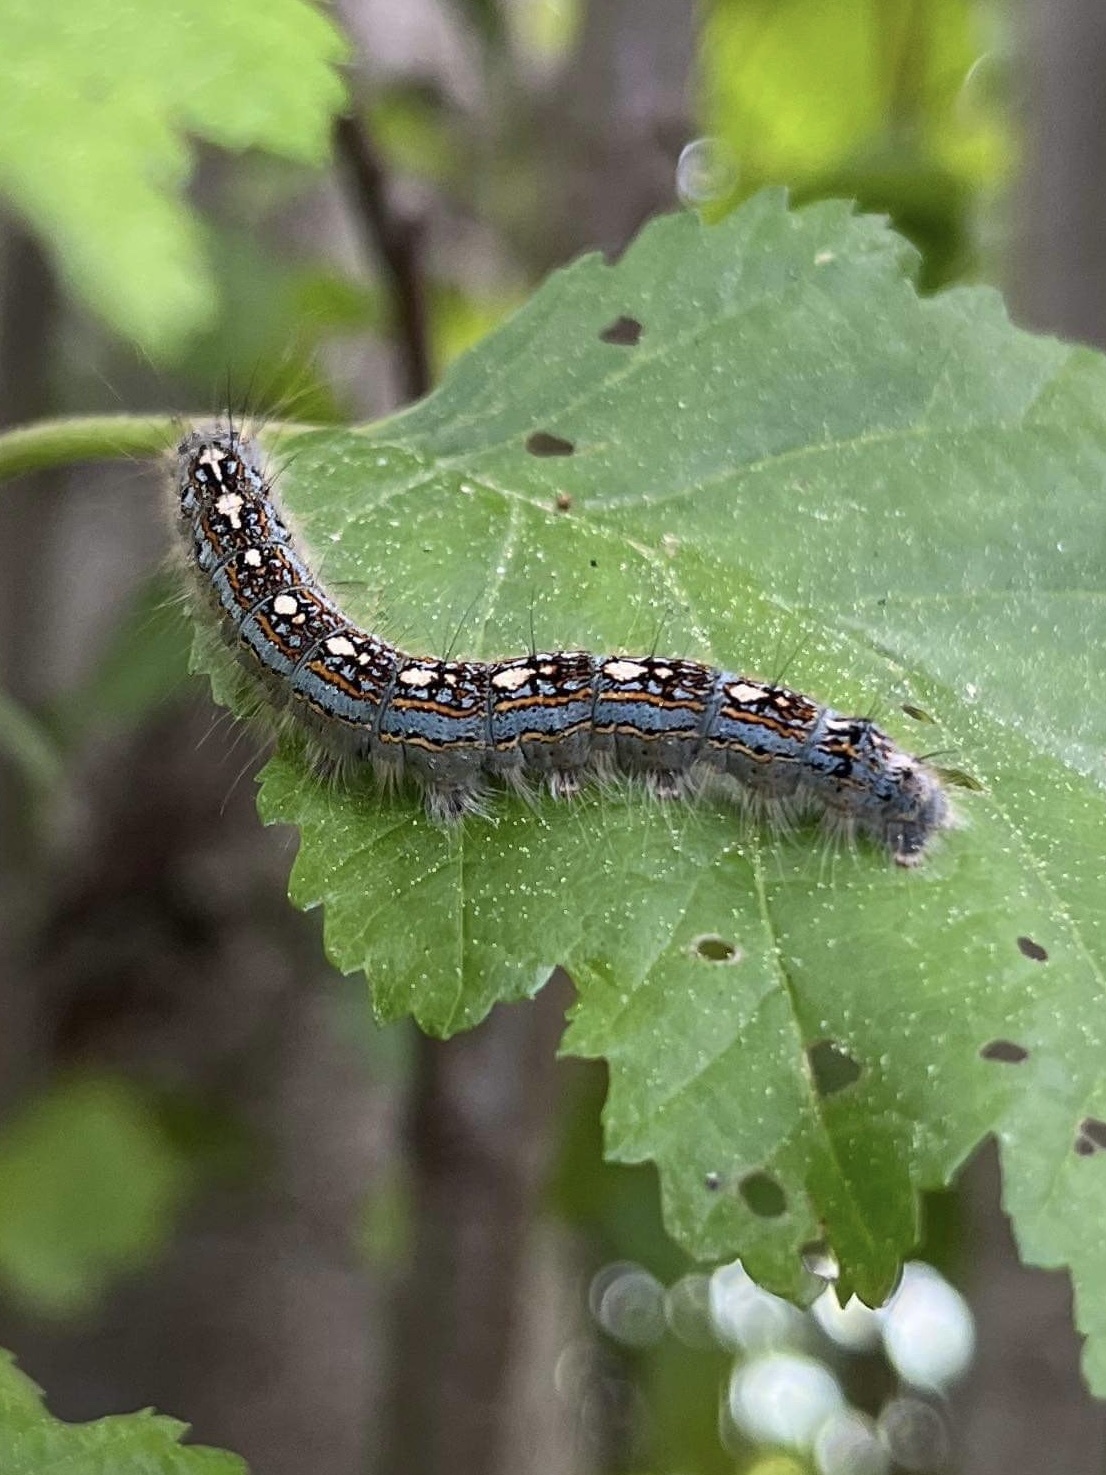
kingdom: Animalia
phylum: Arthropoda
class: Insecta
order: Lepidoptera
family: Lasiocampidae
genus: Malacosoma
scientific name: Malacosoma disstria
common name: Forest tent caterpillar
